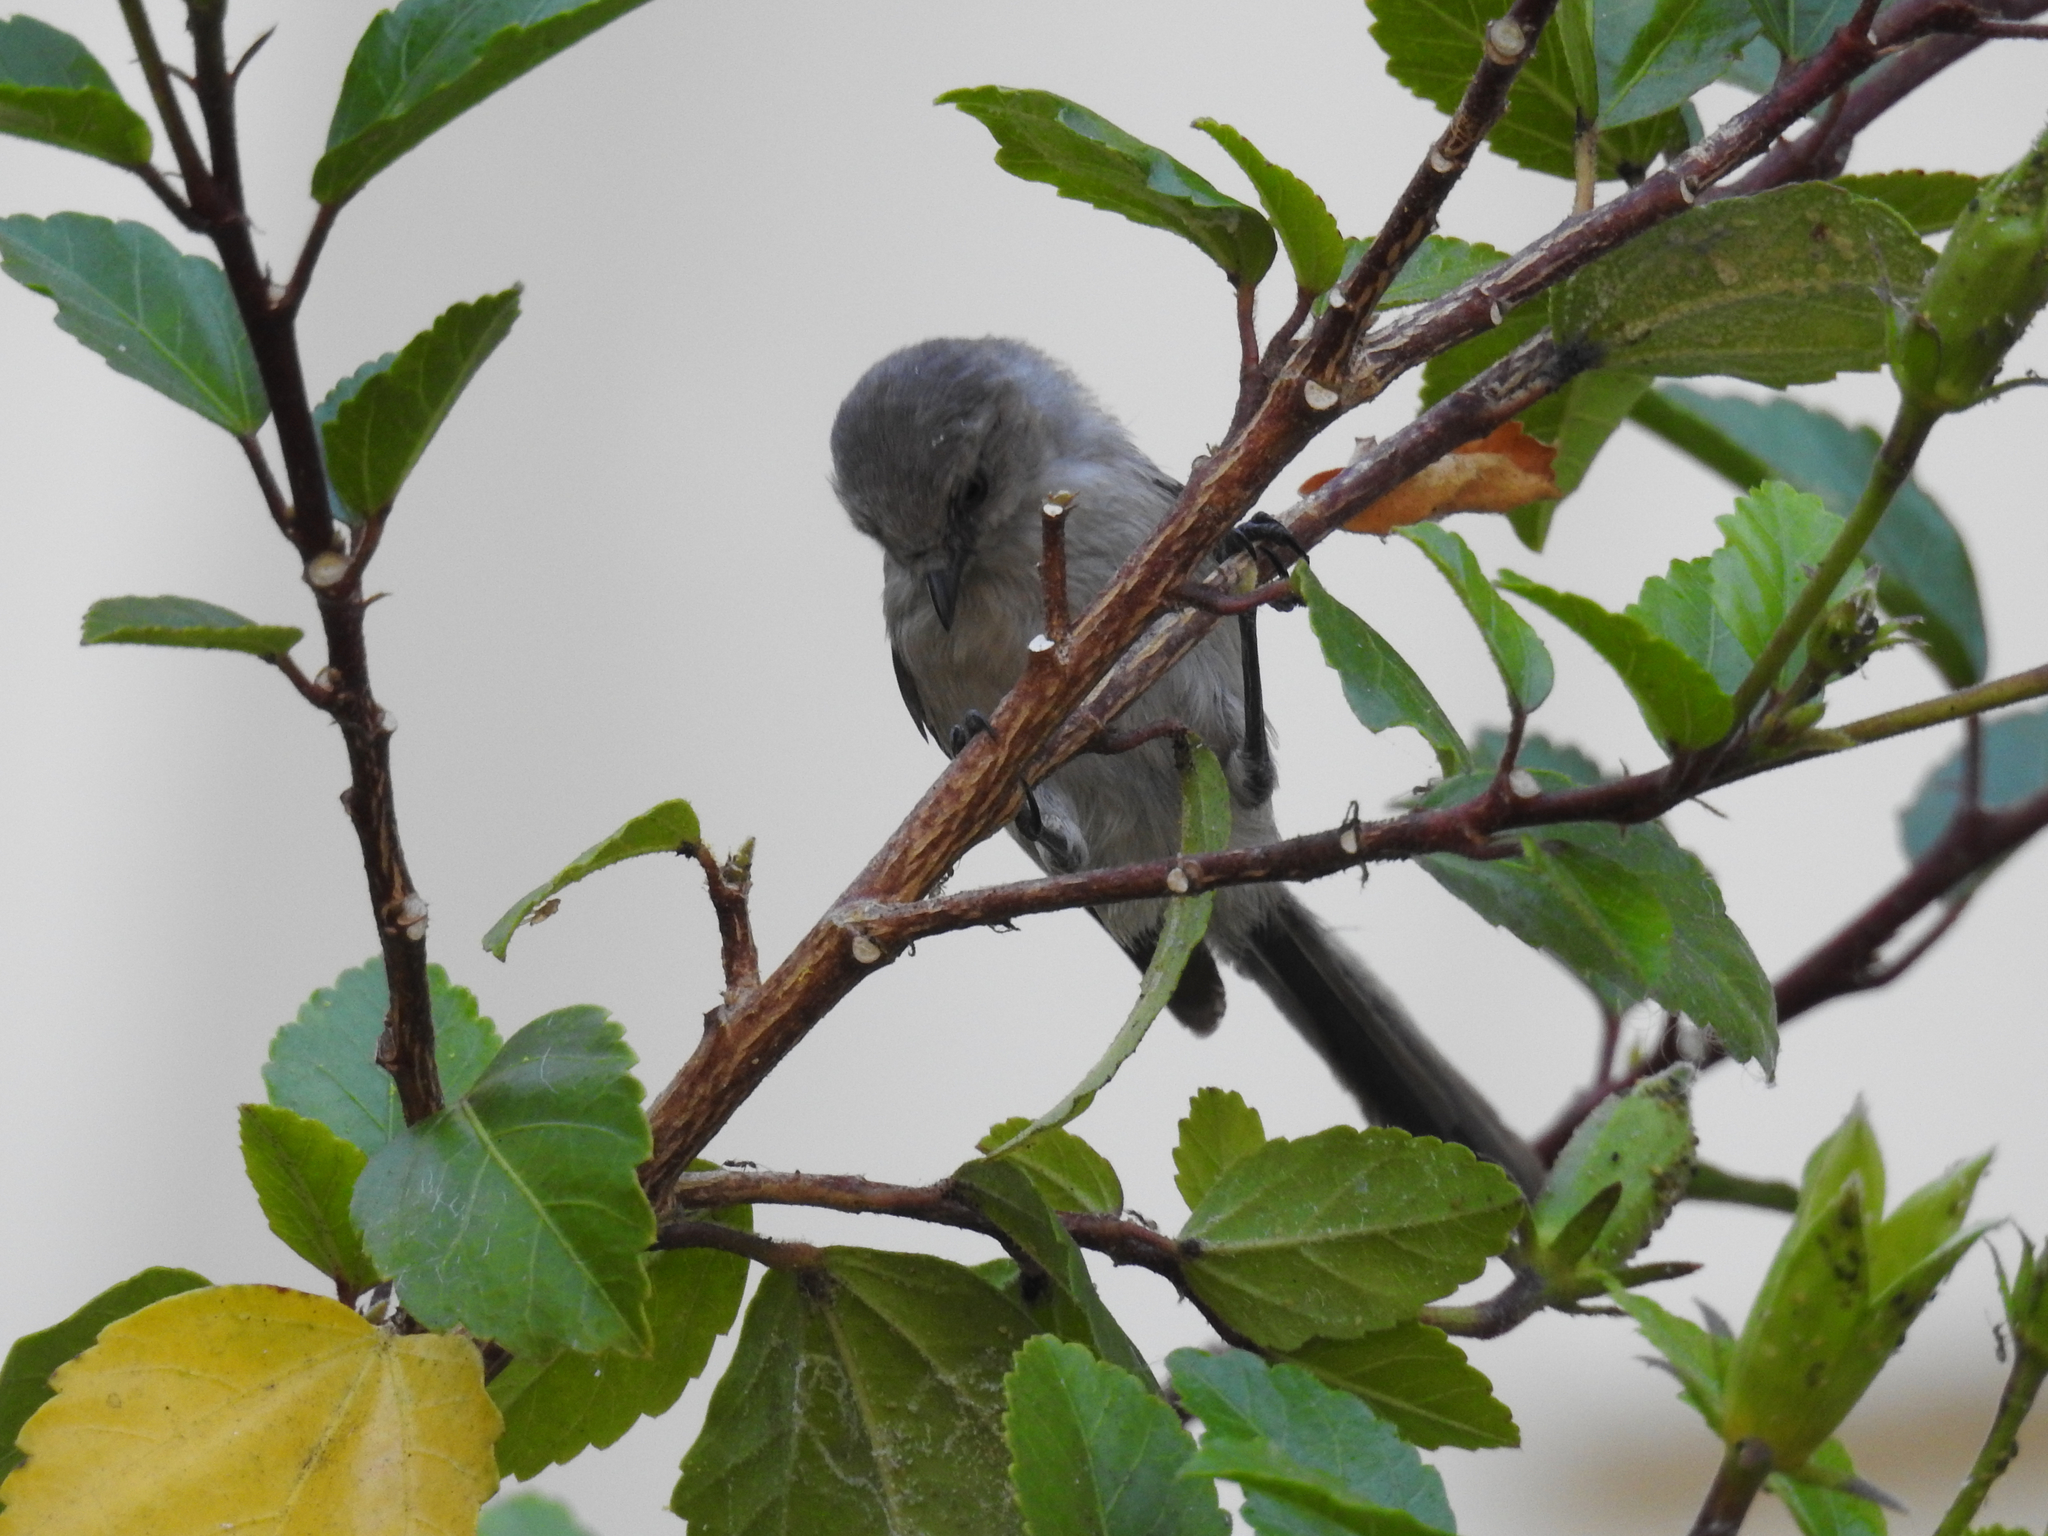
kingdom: Animalia
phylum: Chordata
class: Aves
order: Passeriformes
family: Aegithalidae
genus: Psaltriparus
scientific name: Psaltriparus minimus
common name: American bushtit
